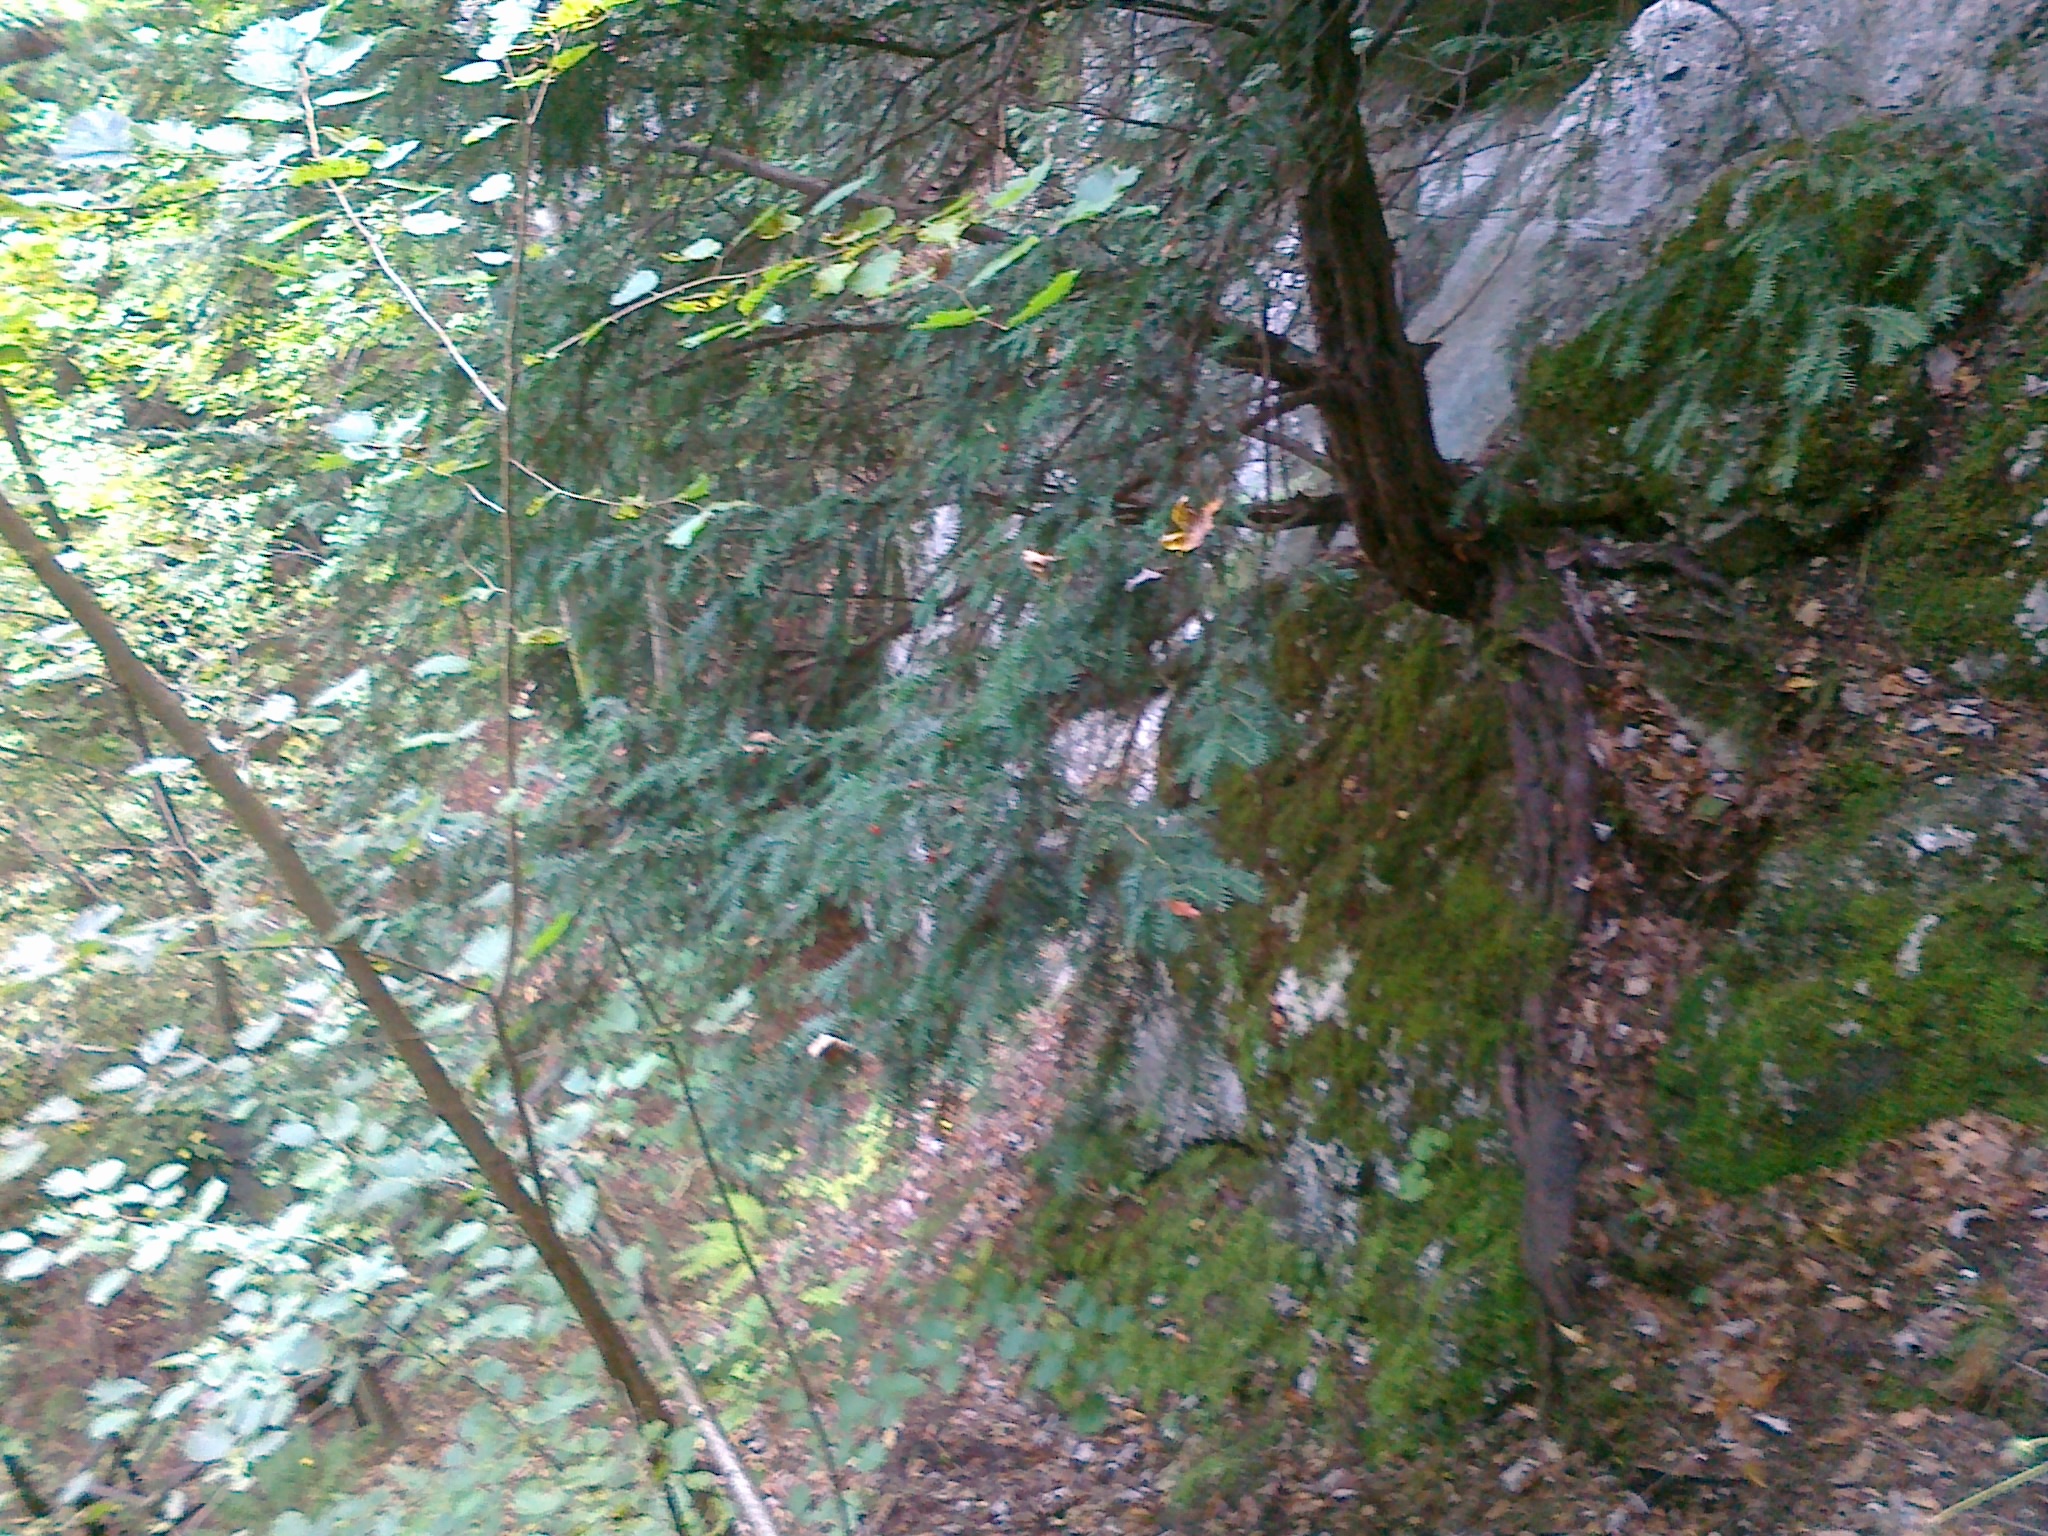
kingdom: Plantae
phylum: Tracheophyta
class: Pinopsida
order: Pinales
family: Taxaceae
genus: Taxus
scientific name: Taxus baccata
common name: Yew
